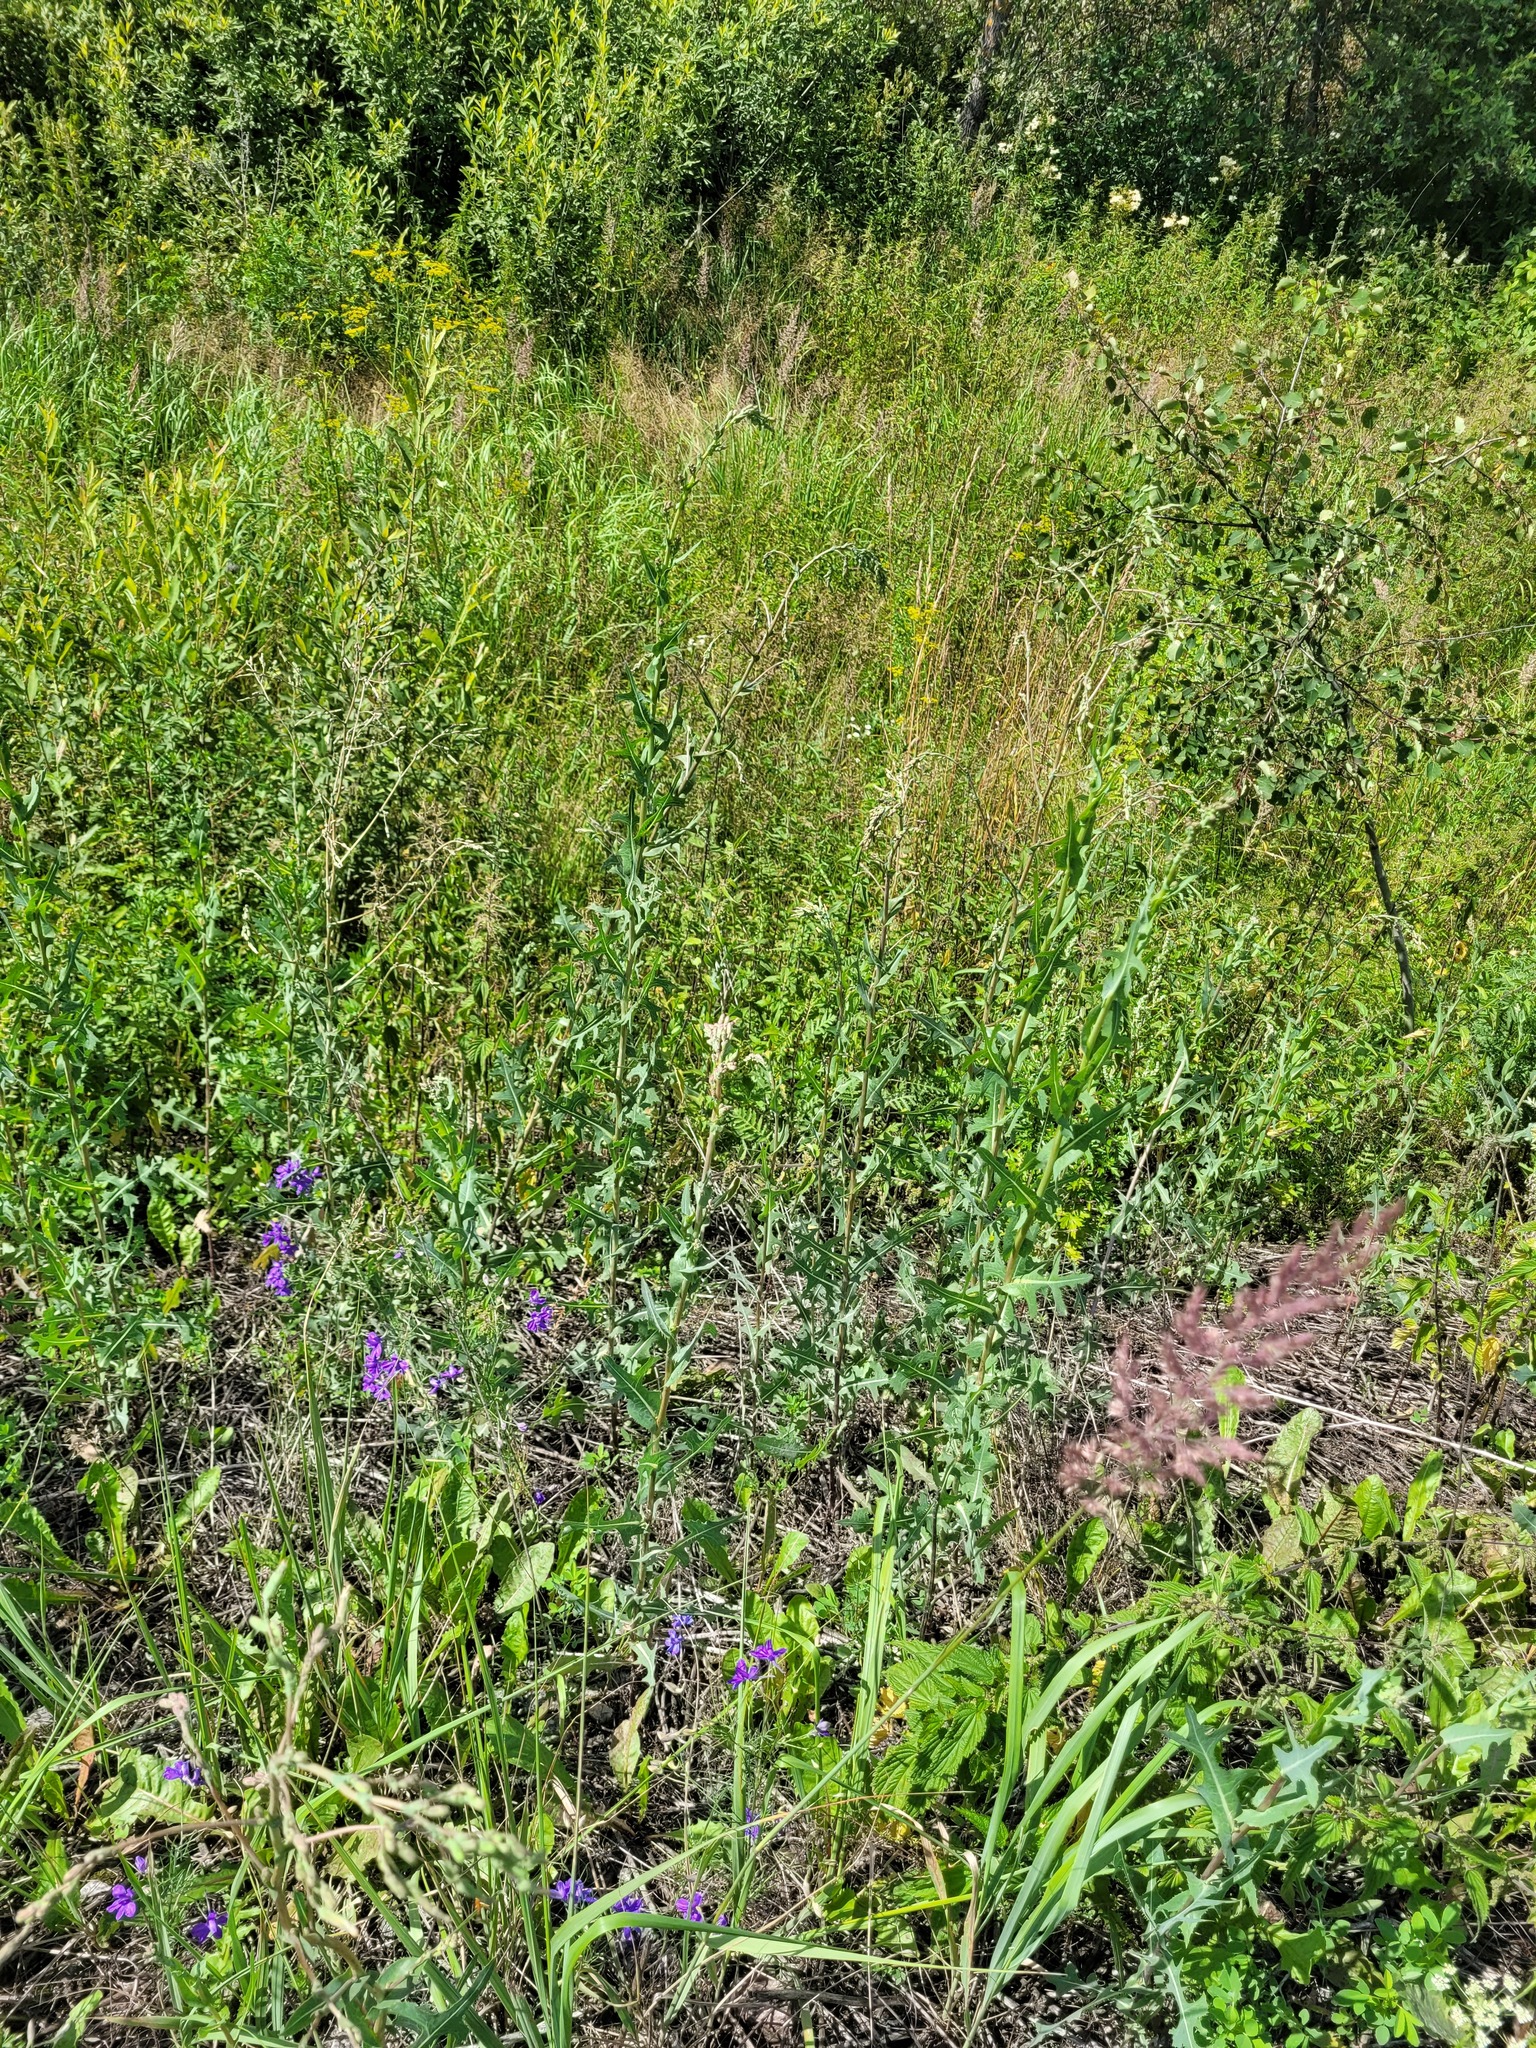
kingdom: Plantae
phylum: Tracheophyta
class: Magnoliopsida
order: Asterales
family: Asteraceae
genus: Lactuca
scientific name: Lactuca serriola
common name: Prickly lettuce
